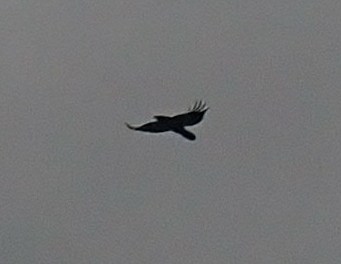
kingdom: Animalia
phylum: Chordata
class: Aves
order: Passeriformes
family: Corvidae
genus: Corvus
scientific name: Corvus corax
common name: Common raven
